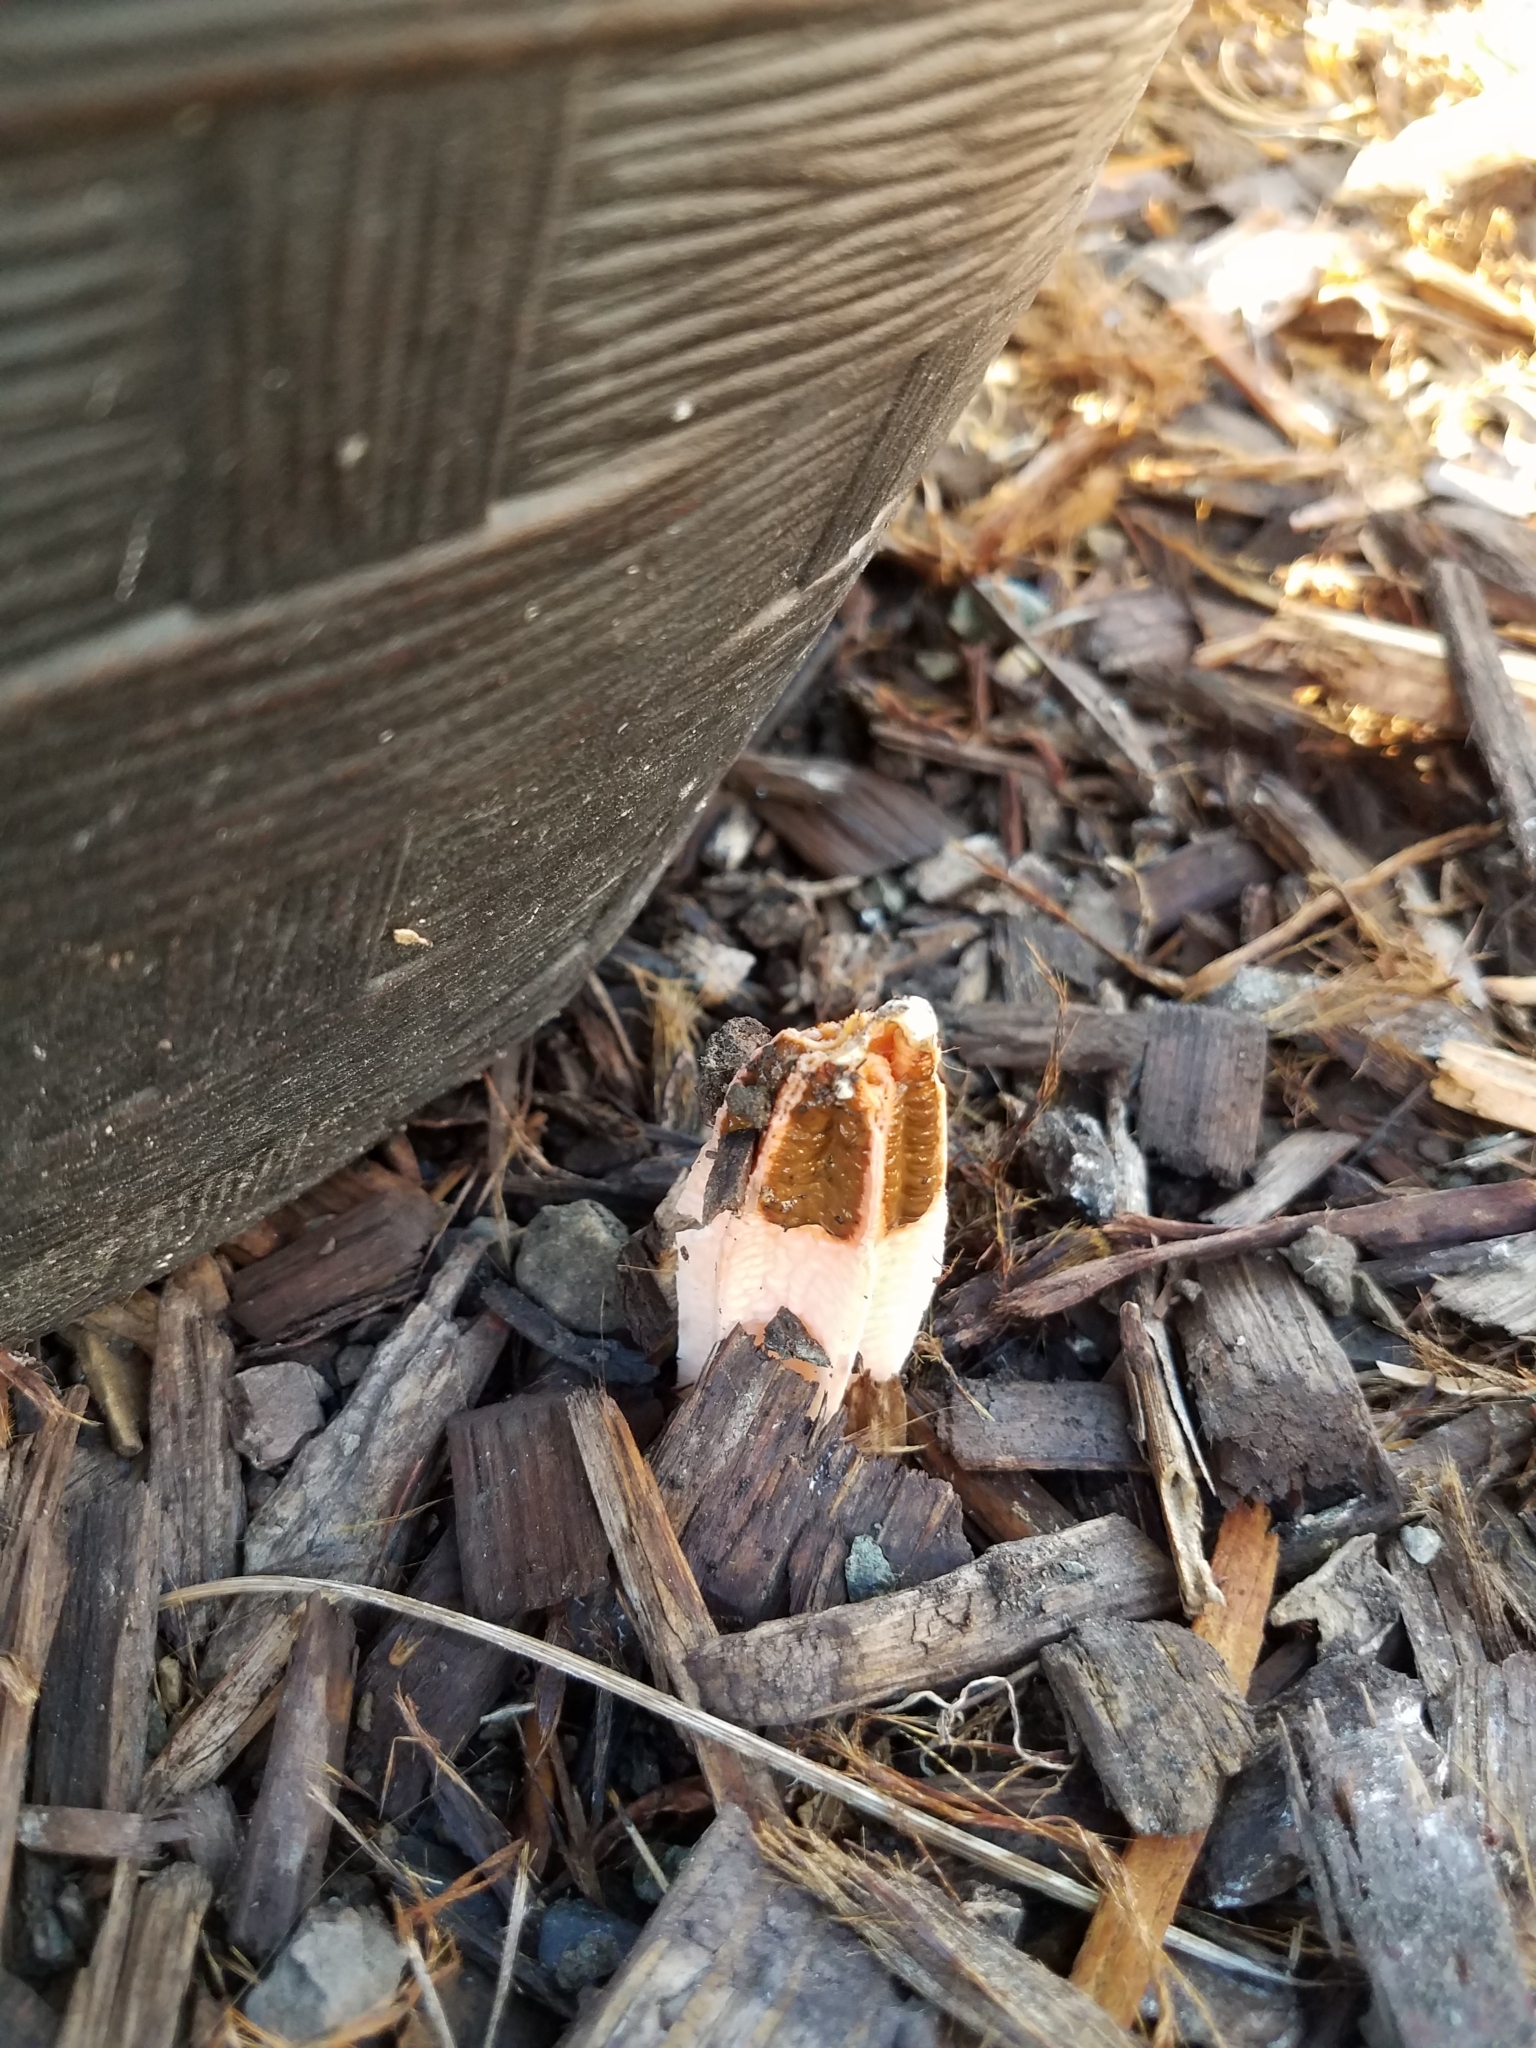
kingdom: Fungi
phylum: Basidiomycota
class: Agaricomycetes
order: Phallales
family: Phallaceae
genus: Lysurus
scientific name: Lysurus mokusin
